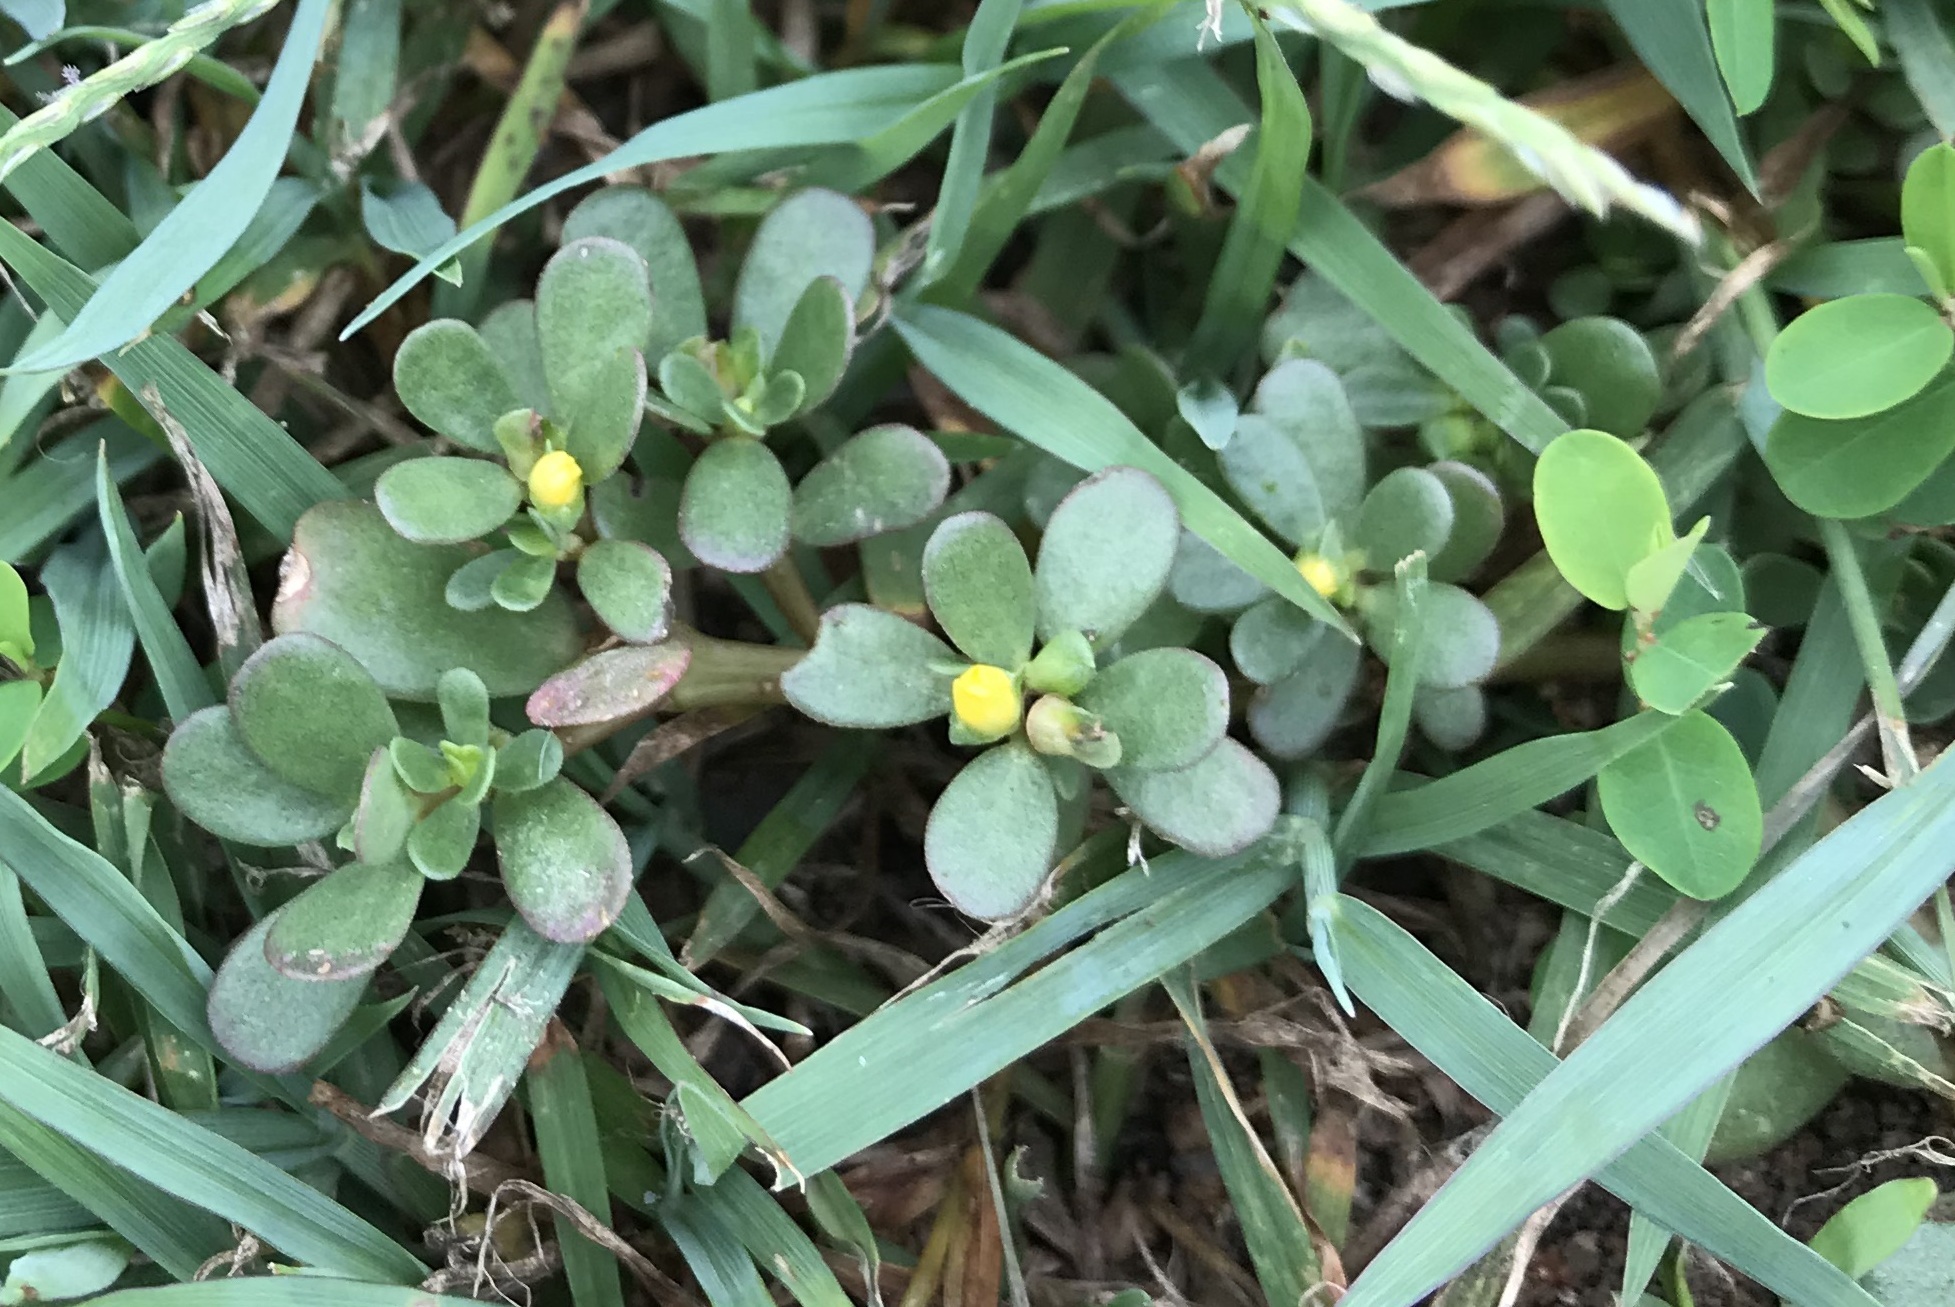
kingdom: Plantae
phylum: Tracheophyta
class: Magnoliopsida
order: Caryophyllales
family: Portulacaceae
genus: Portulaca
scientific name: Portulaca oleracea
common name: Common purslane
